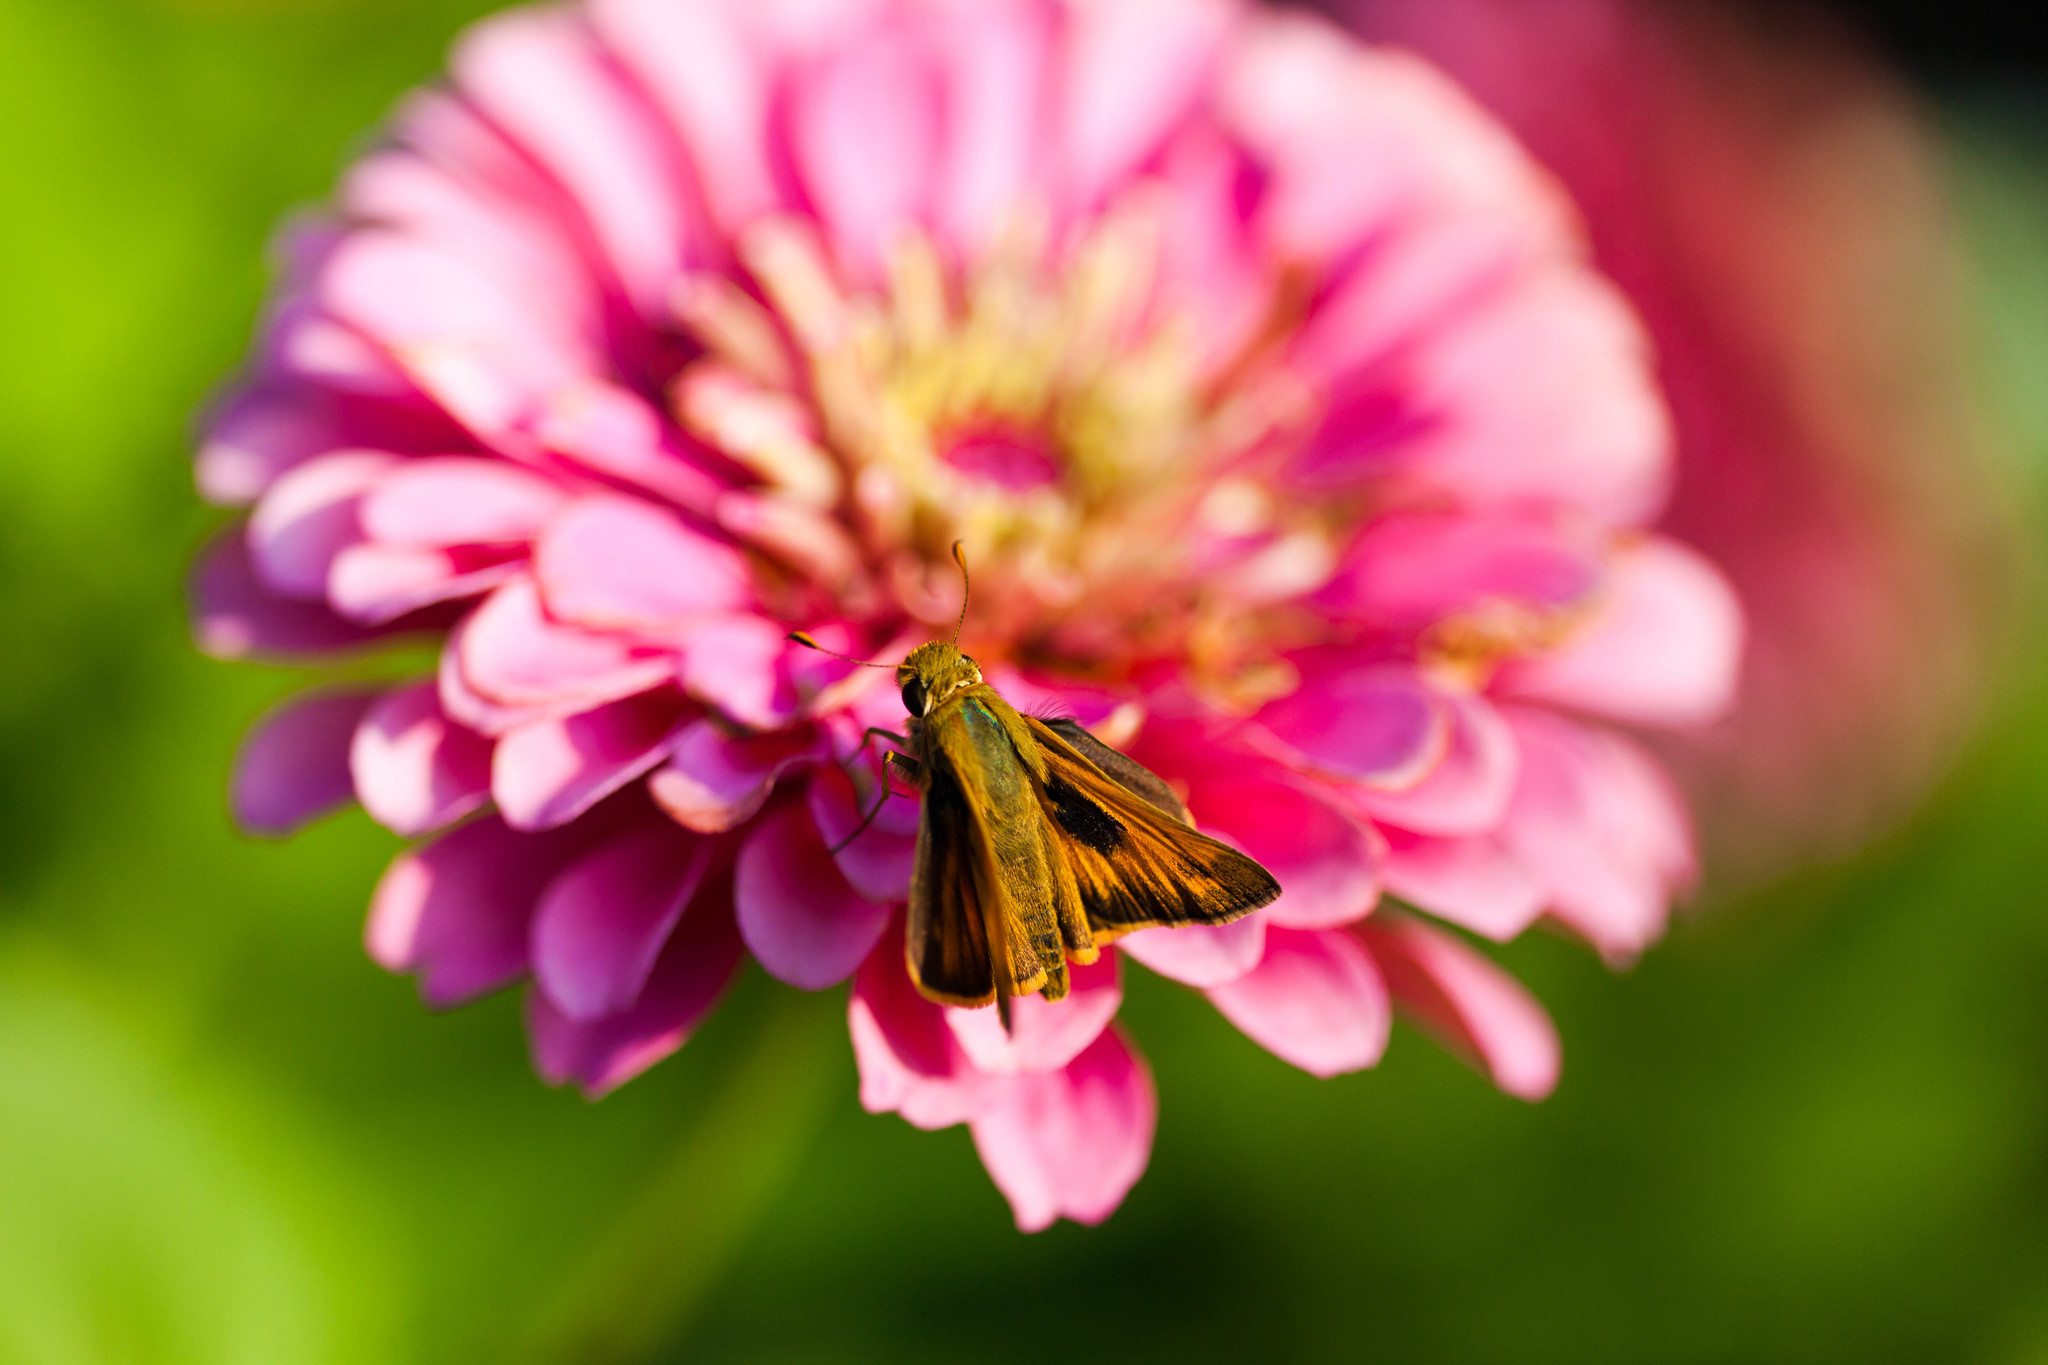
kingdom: Animalia
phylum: Arthropoda
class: Insecta
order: Lepidoptera
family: Hesperiidae
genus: Atalopedes
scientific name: Atalopedes
